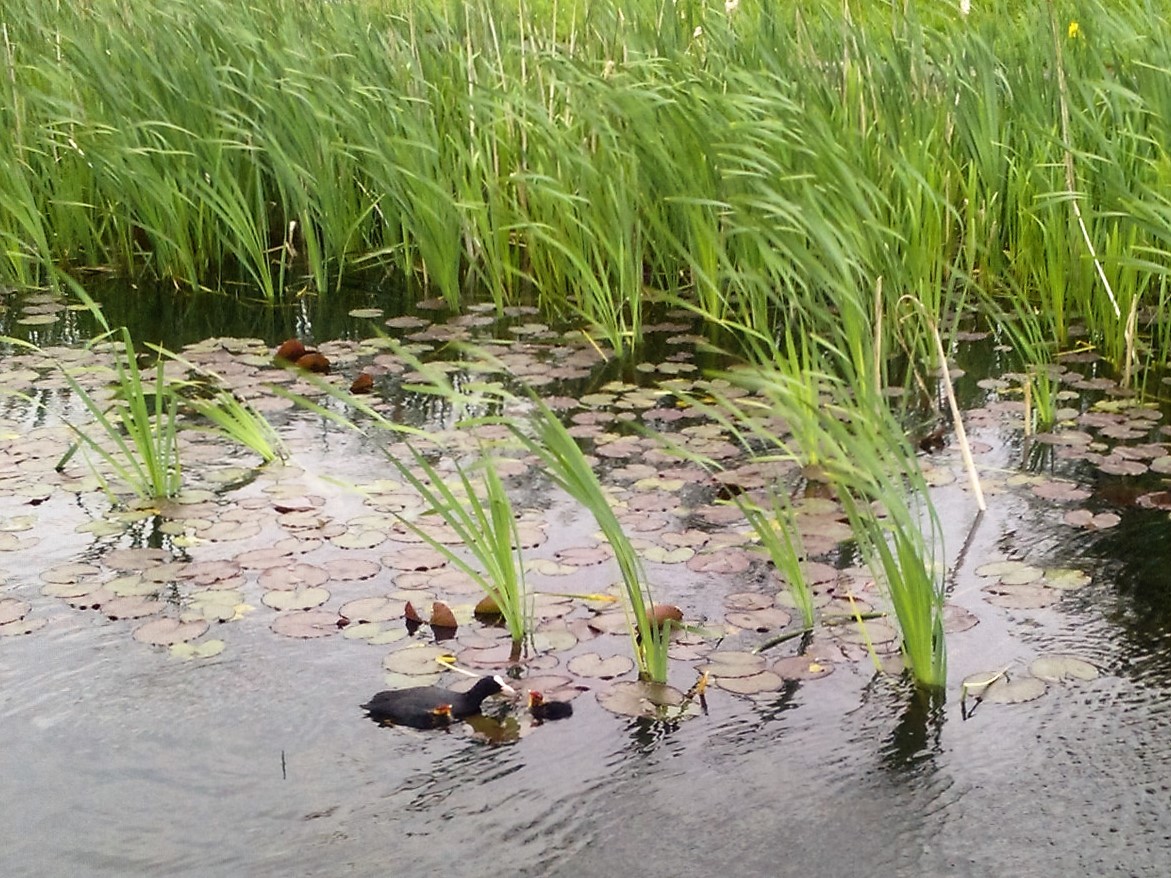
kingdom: Animalia
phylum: Chordata
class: Aves
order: Gruiformes
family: Rallidae
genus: Fulica
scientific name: Fulica atra
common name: Eurasian coot
